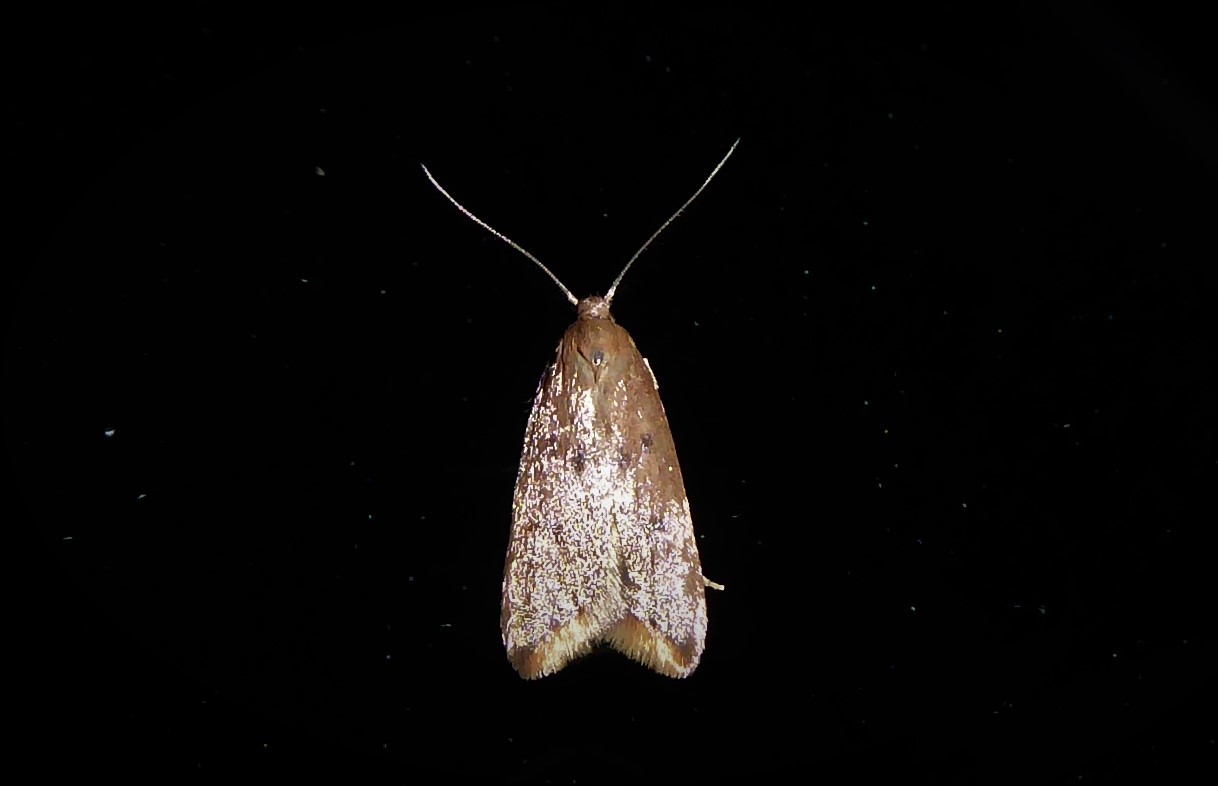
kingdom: Animalia
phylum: Arthropoda
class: Insecta
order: Lepidoptera
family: Oecophoridae
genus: Tachystola
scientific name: Tachystola acroxantha
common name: Ruddy streak
